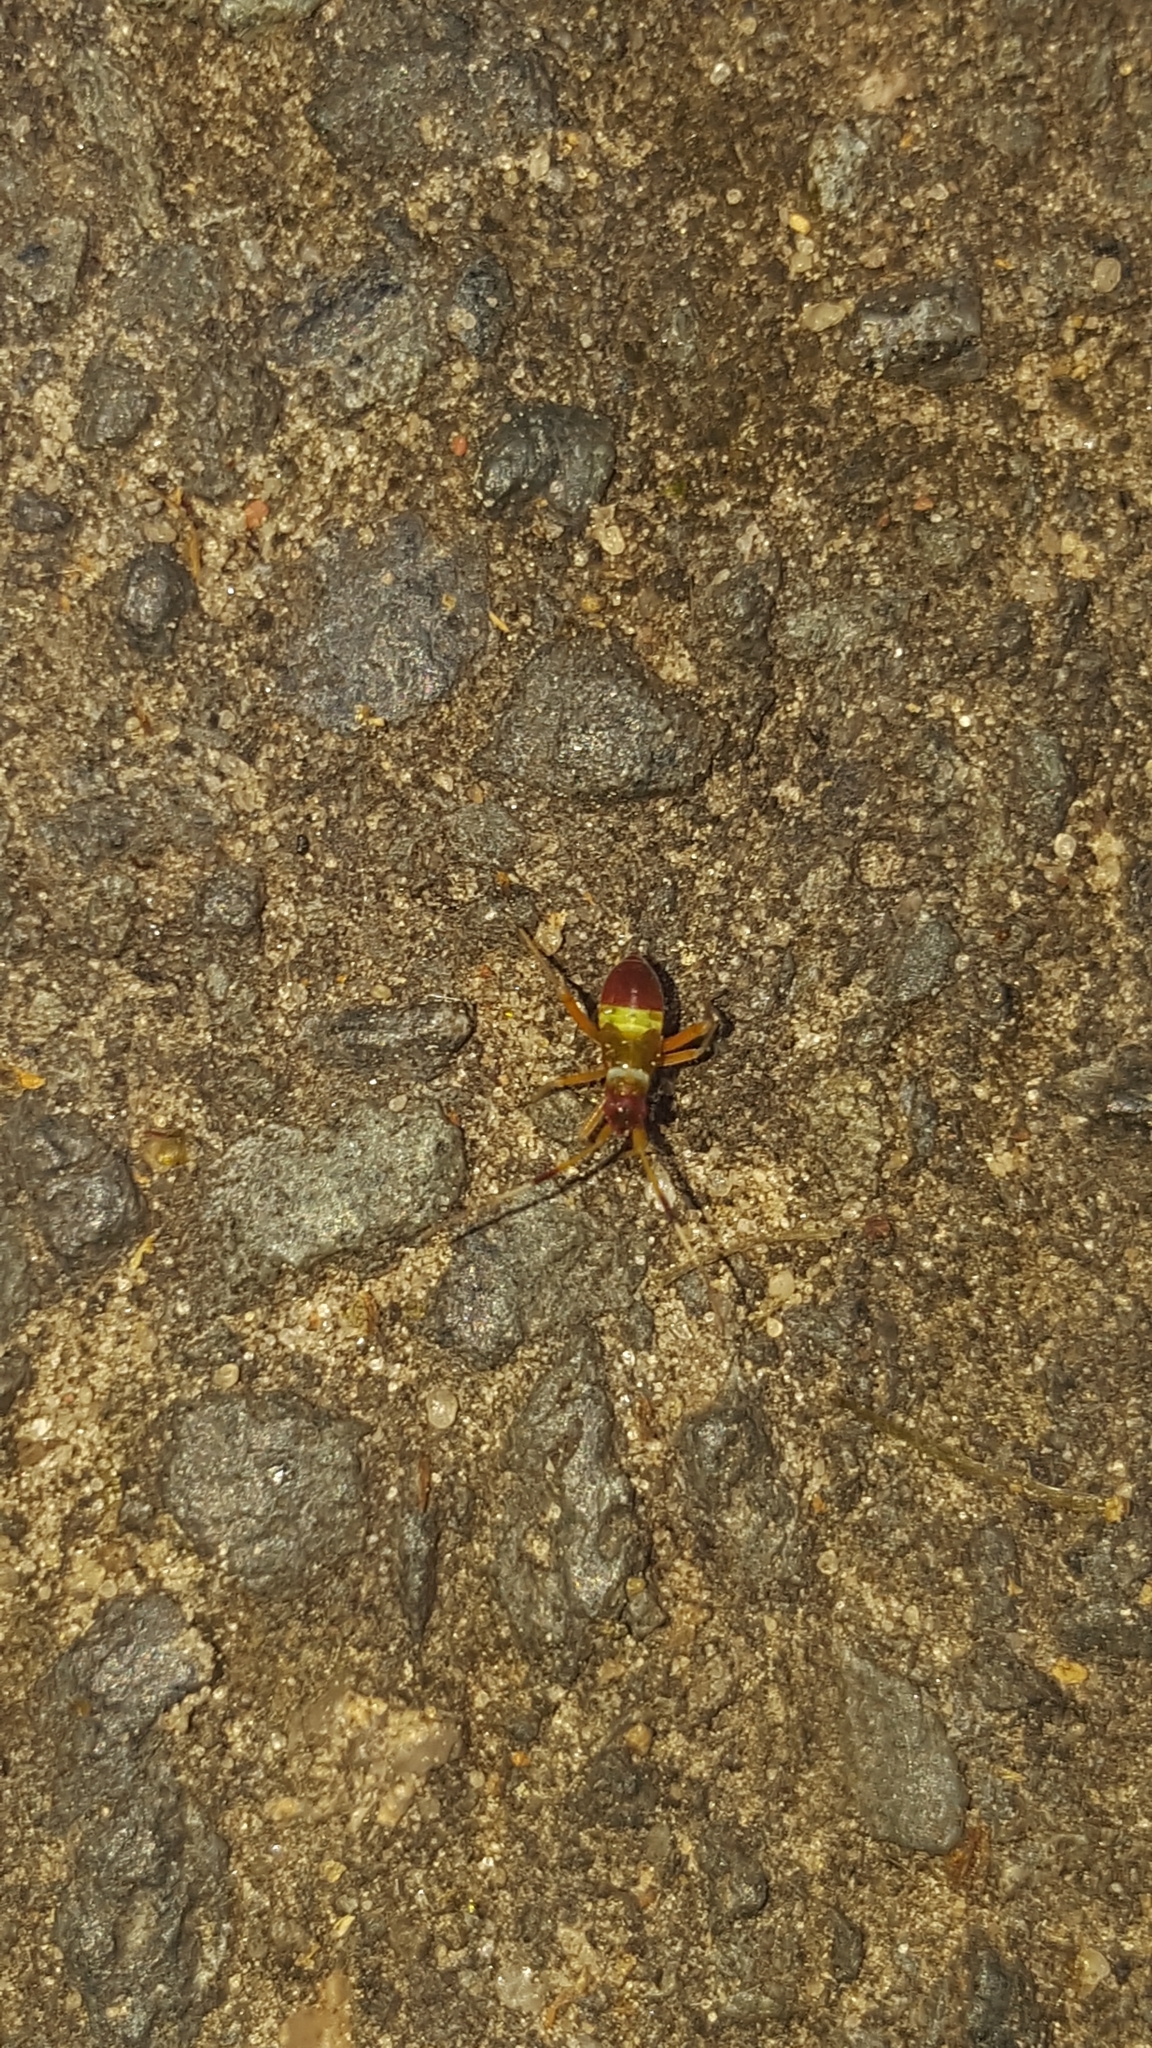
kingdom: Animalia
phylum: Arthropoda
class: Insecta
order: Hemiptera
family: Miridae
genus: Closterotomus
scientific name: Closterotomus biclavatus
